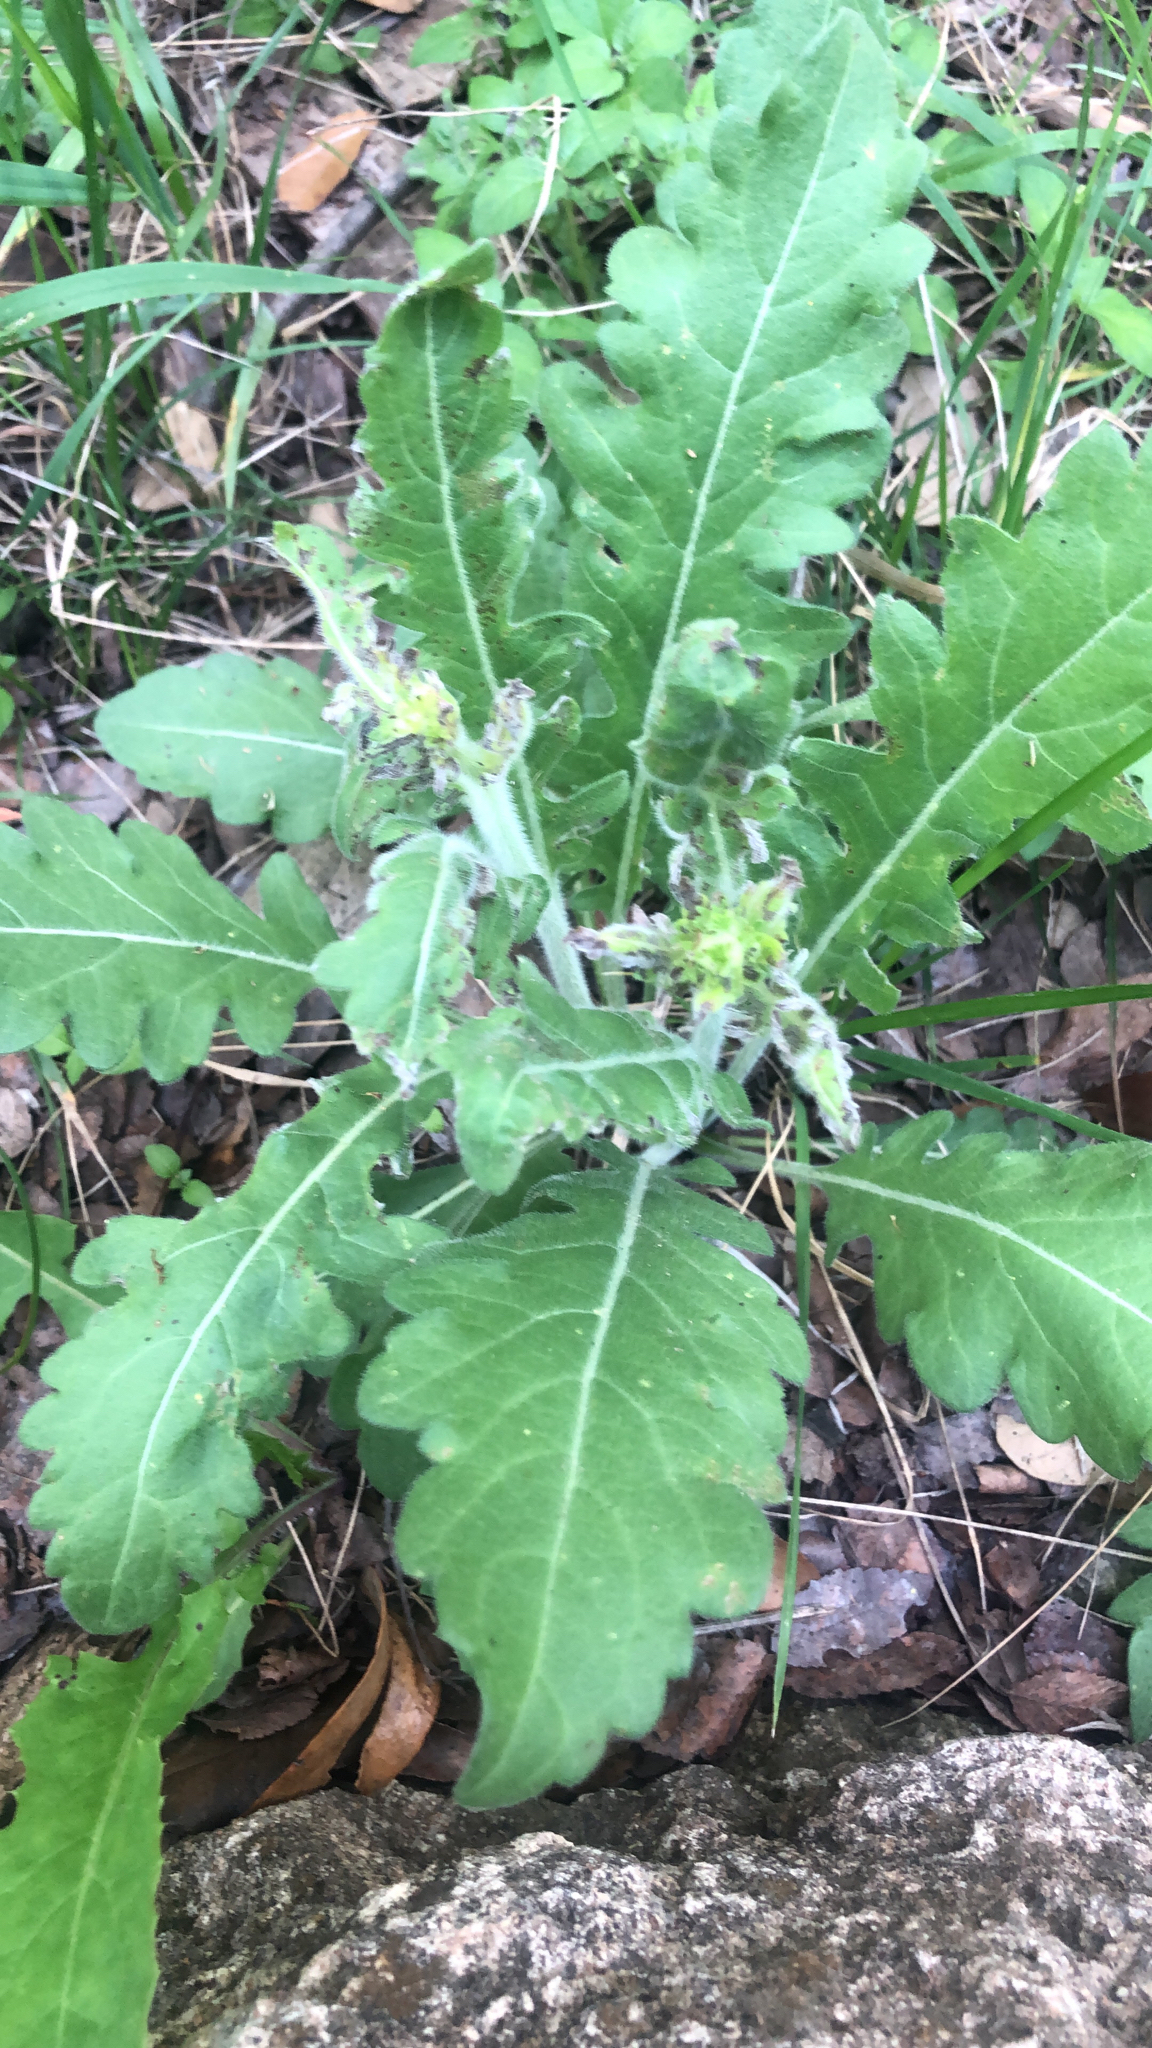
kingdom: Plantae
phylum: Tracheophyta
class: Magnoliopsida
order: Asterales
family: Asteraceae
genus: Engelmannia
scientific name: Engelmannia peristenia
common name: Engelmann's daisy
